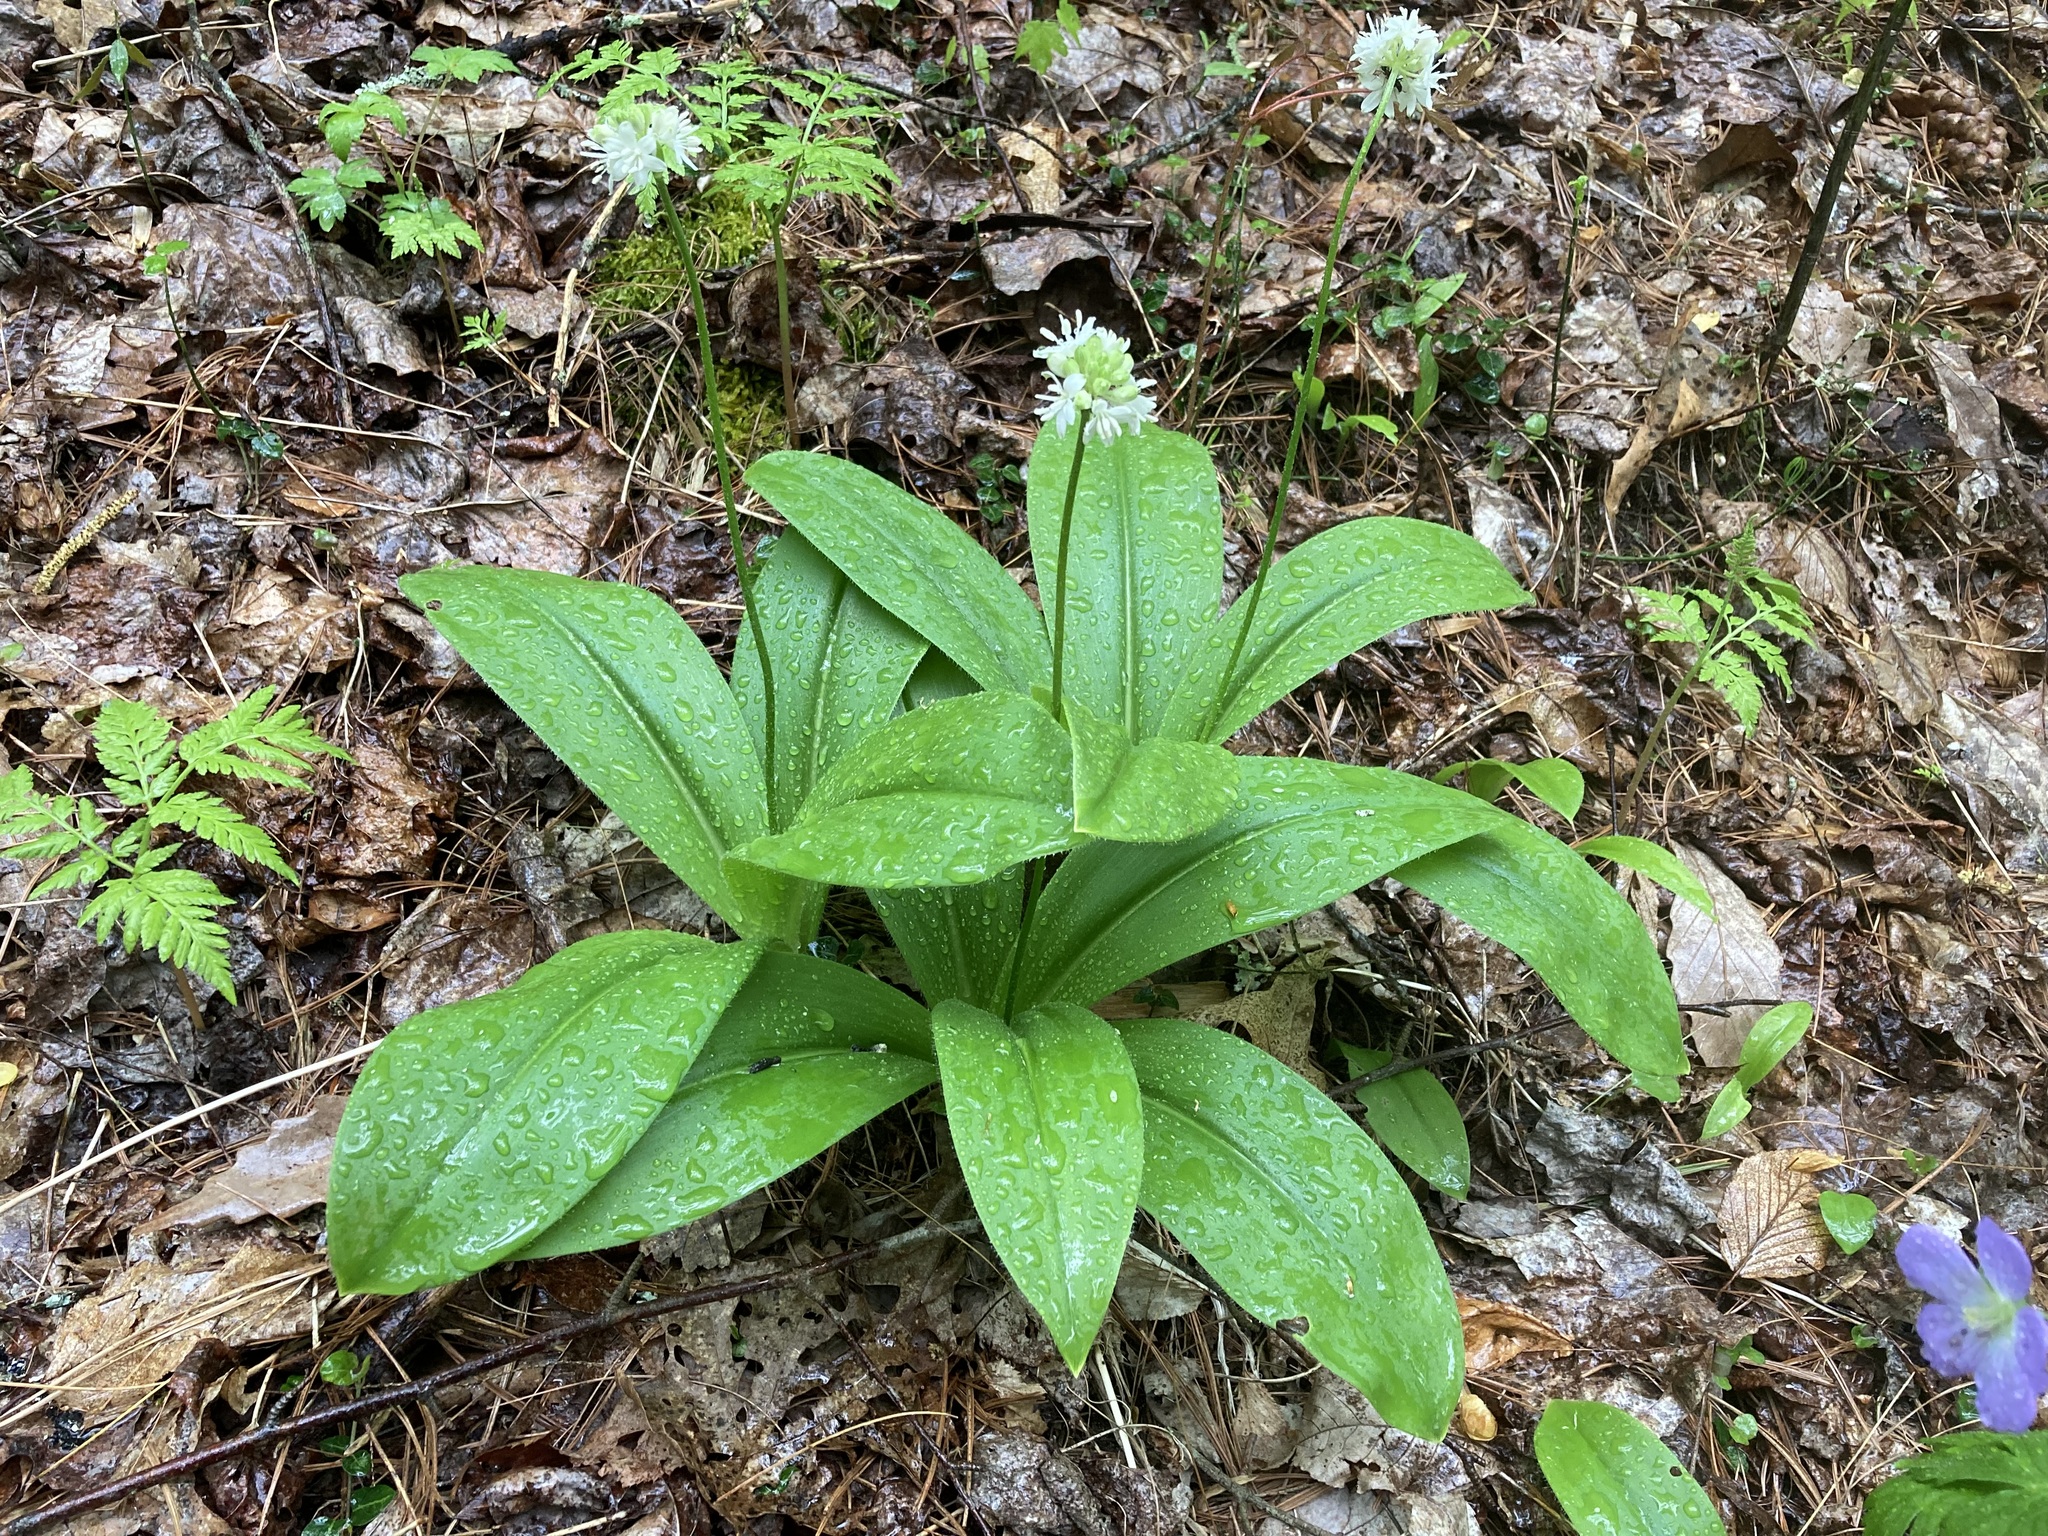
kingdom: Plantae
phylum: Tracheophyta
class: Liliopsida
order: Liliales
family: Liliaceae
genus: Clintonia
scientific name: Clintonia umbellulata
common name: Speckle wood-lily
